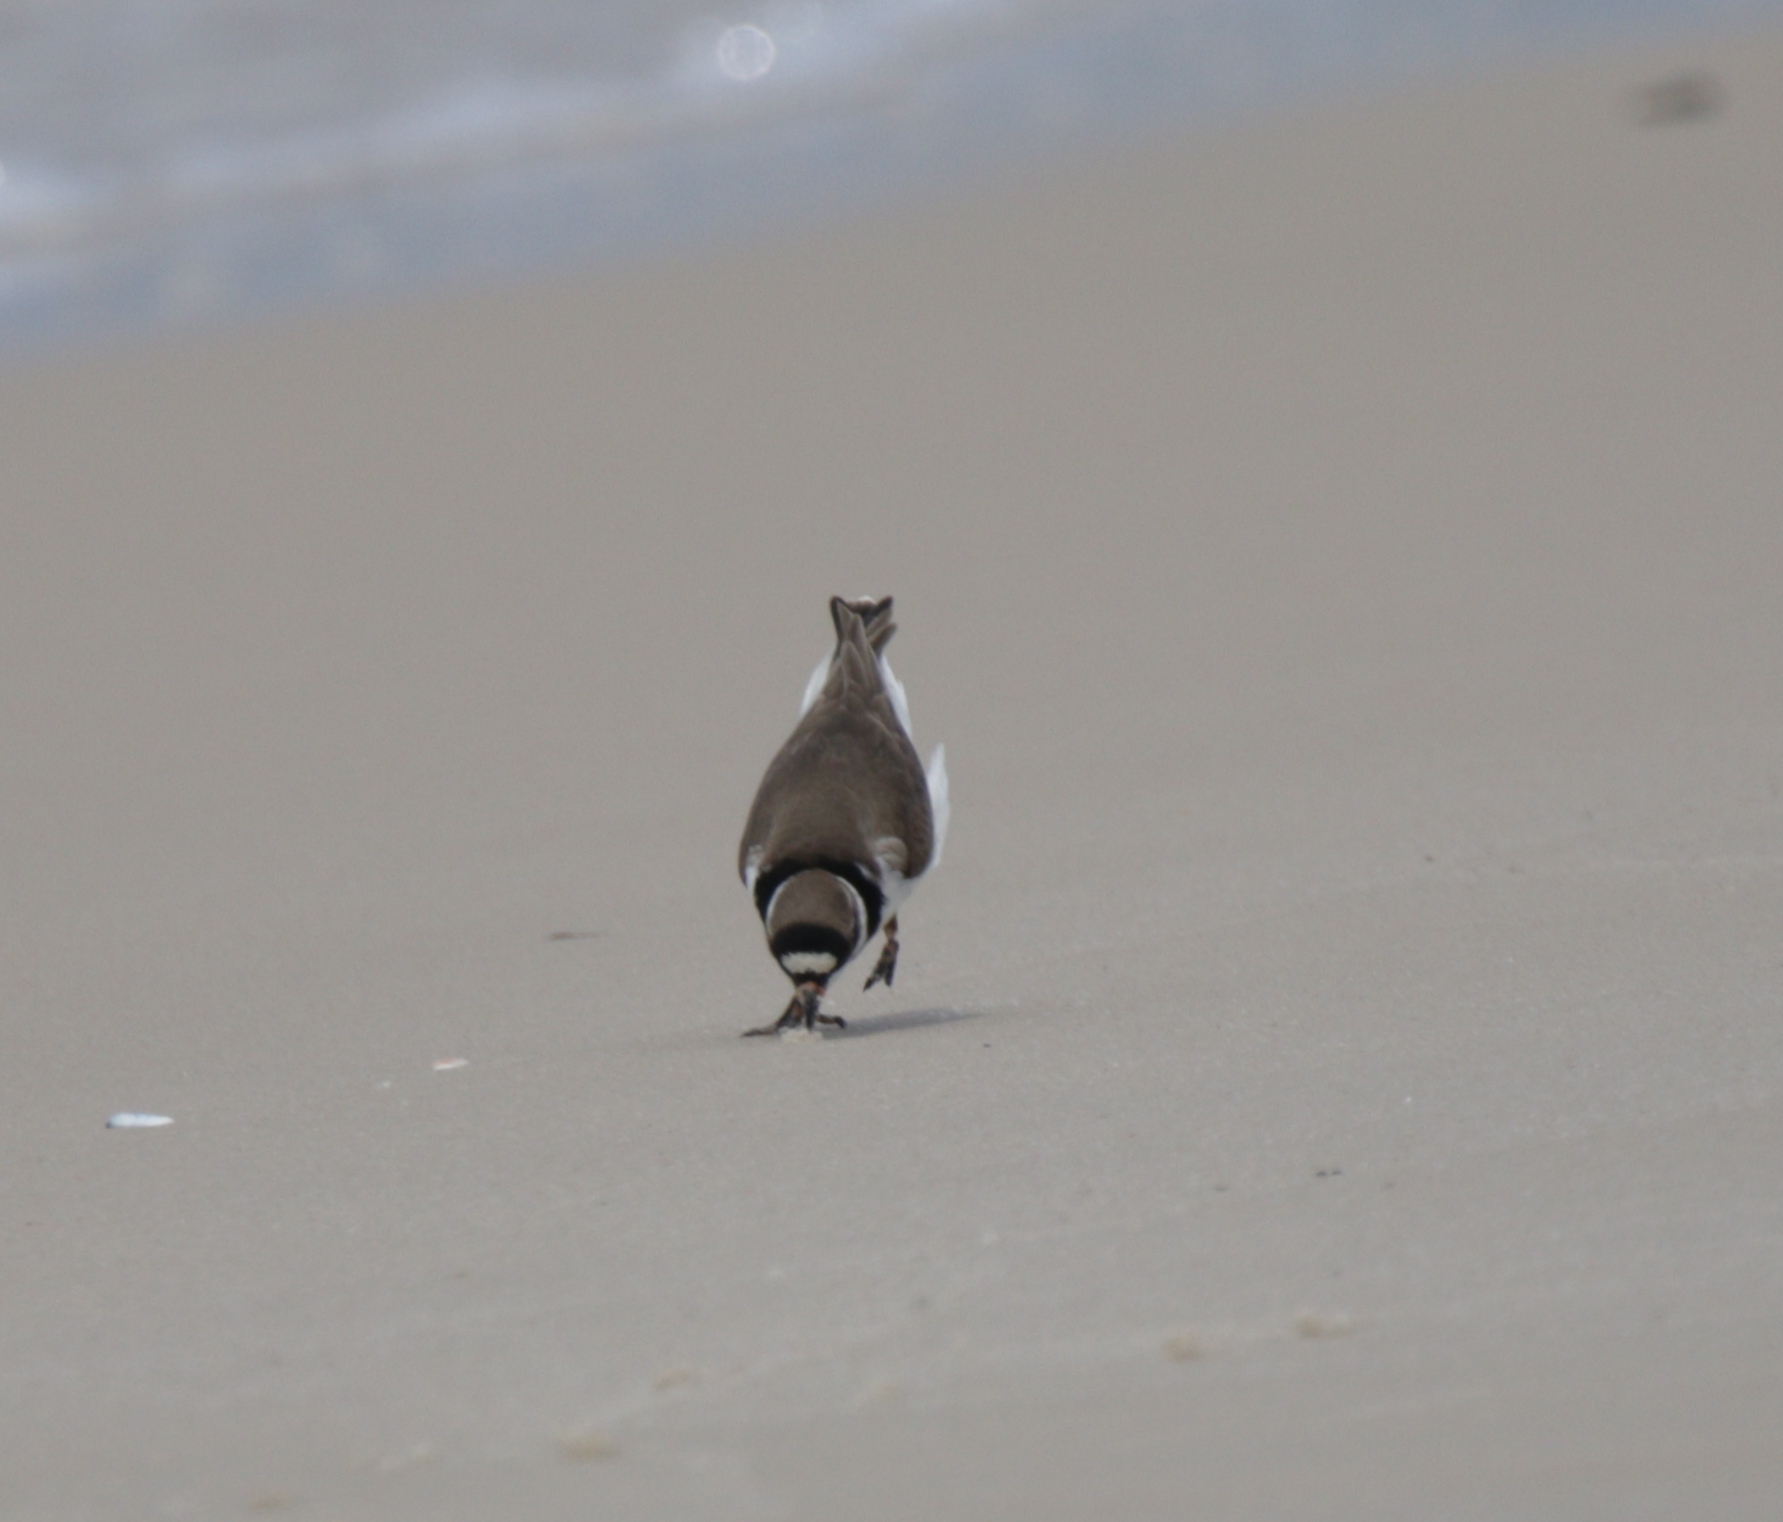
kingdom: Animalia
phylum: Chordata
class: Aves
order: Charadriiformes
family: Charadriidae
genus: Charadrius
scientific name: Charadrius semipalmatus
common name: Semipalmated plover
